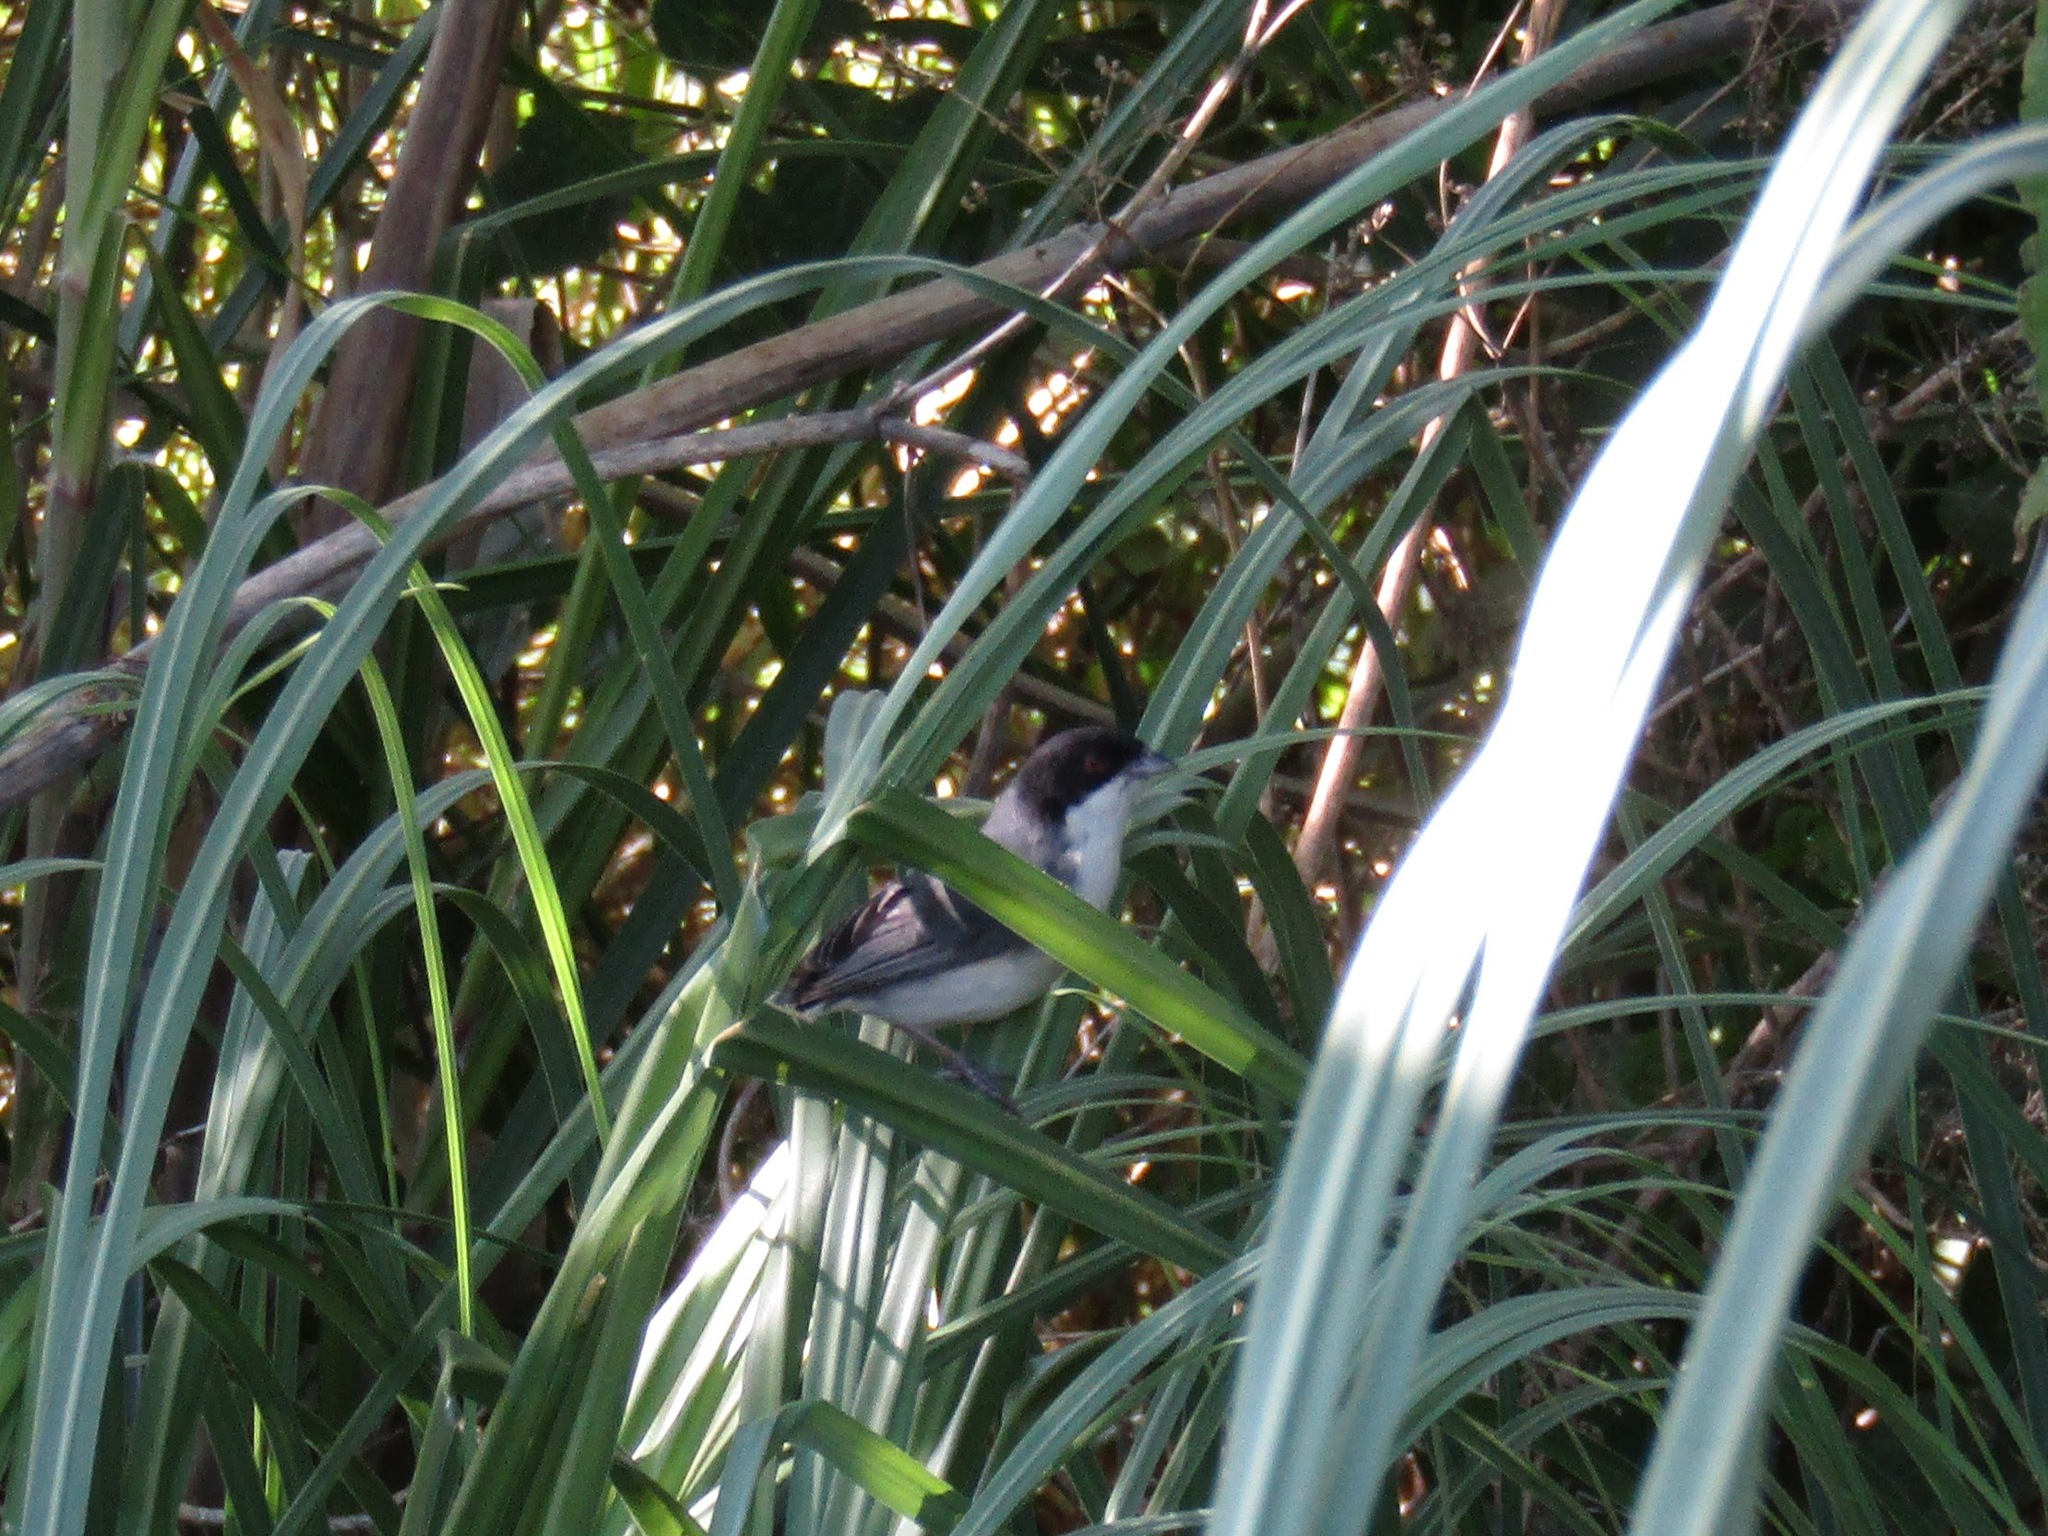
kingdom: Animalia
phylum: Chordata
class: Aves
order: Passeriformes
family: Thraupidae
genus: Microspingus
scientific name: Microspingus melanoleucus
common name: Black-capped warbling-finch
